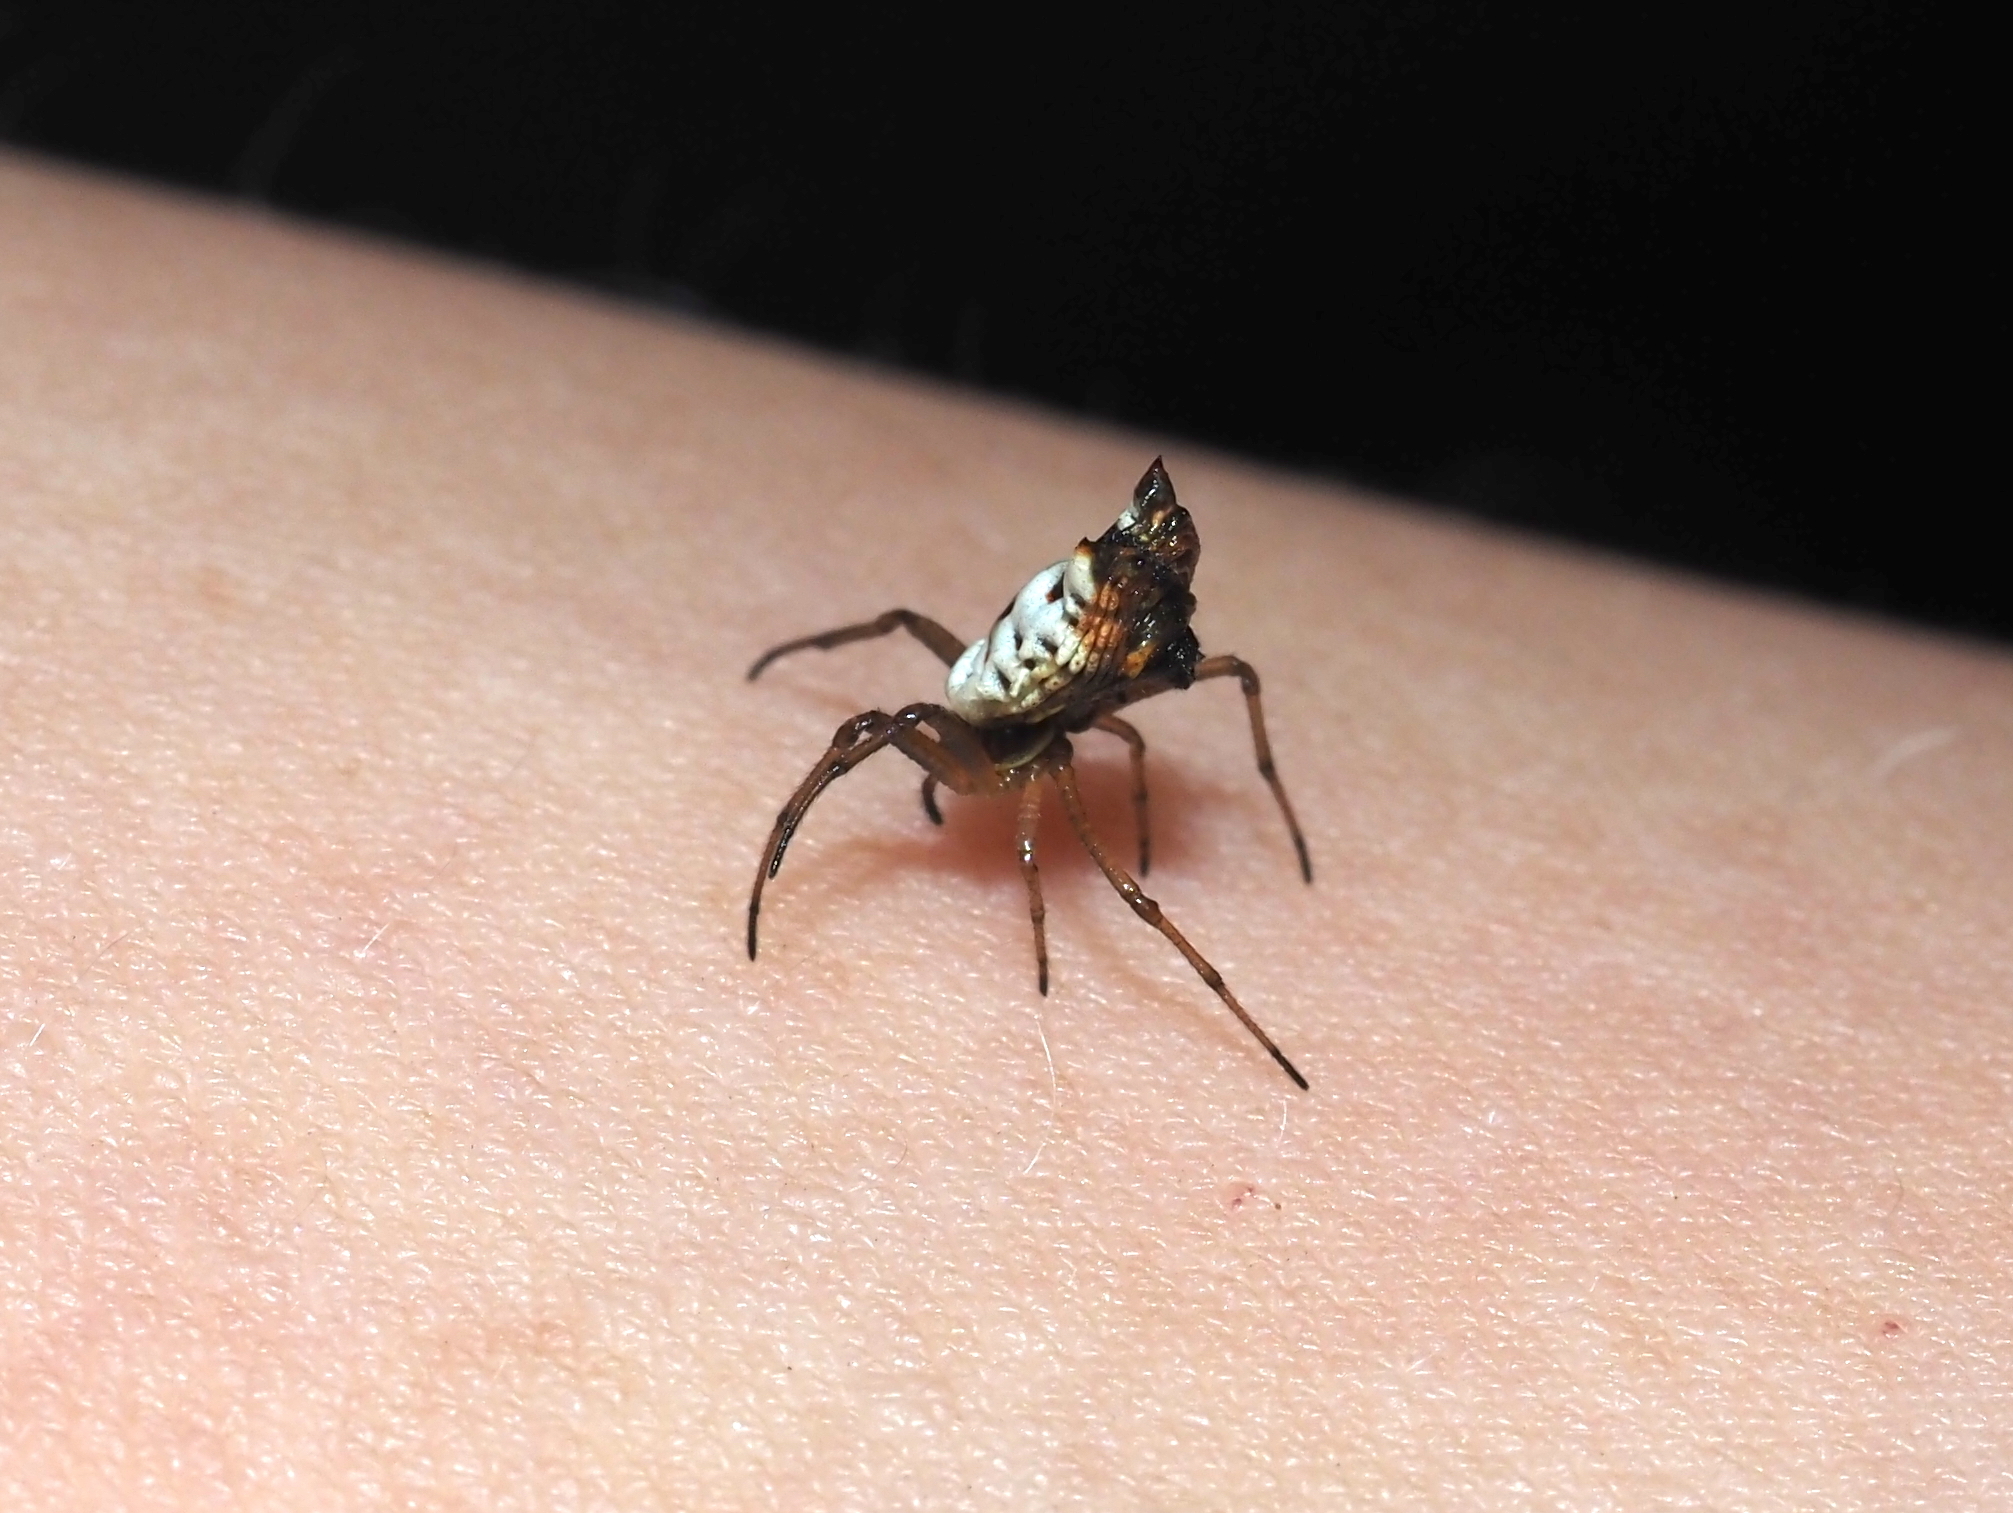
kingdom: Animalia
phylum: Arthropoda
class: Arachnida
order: Araneae
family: Araneidae
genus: Micrathena
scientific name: Micrathena mitrata
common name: Orb weavers
